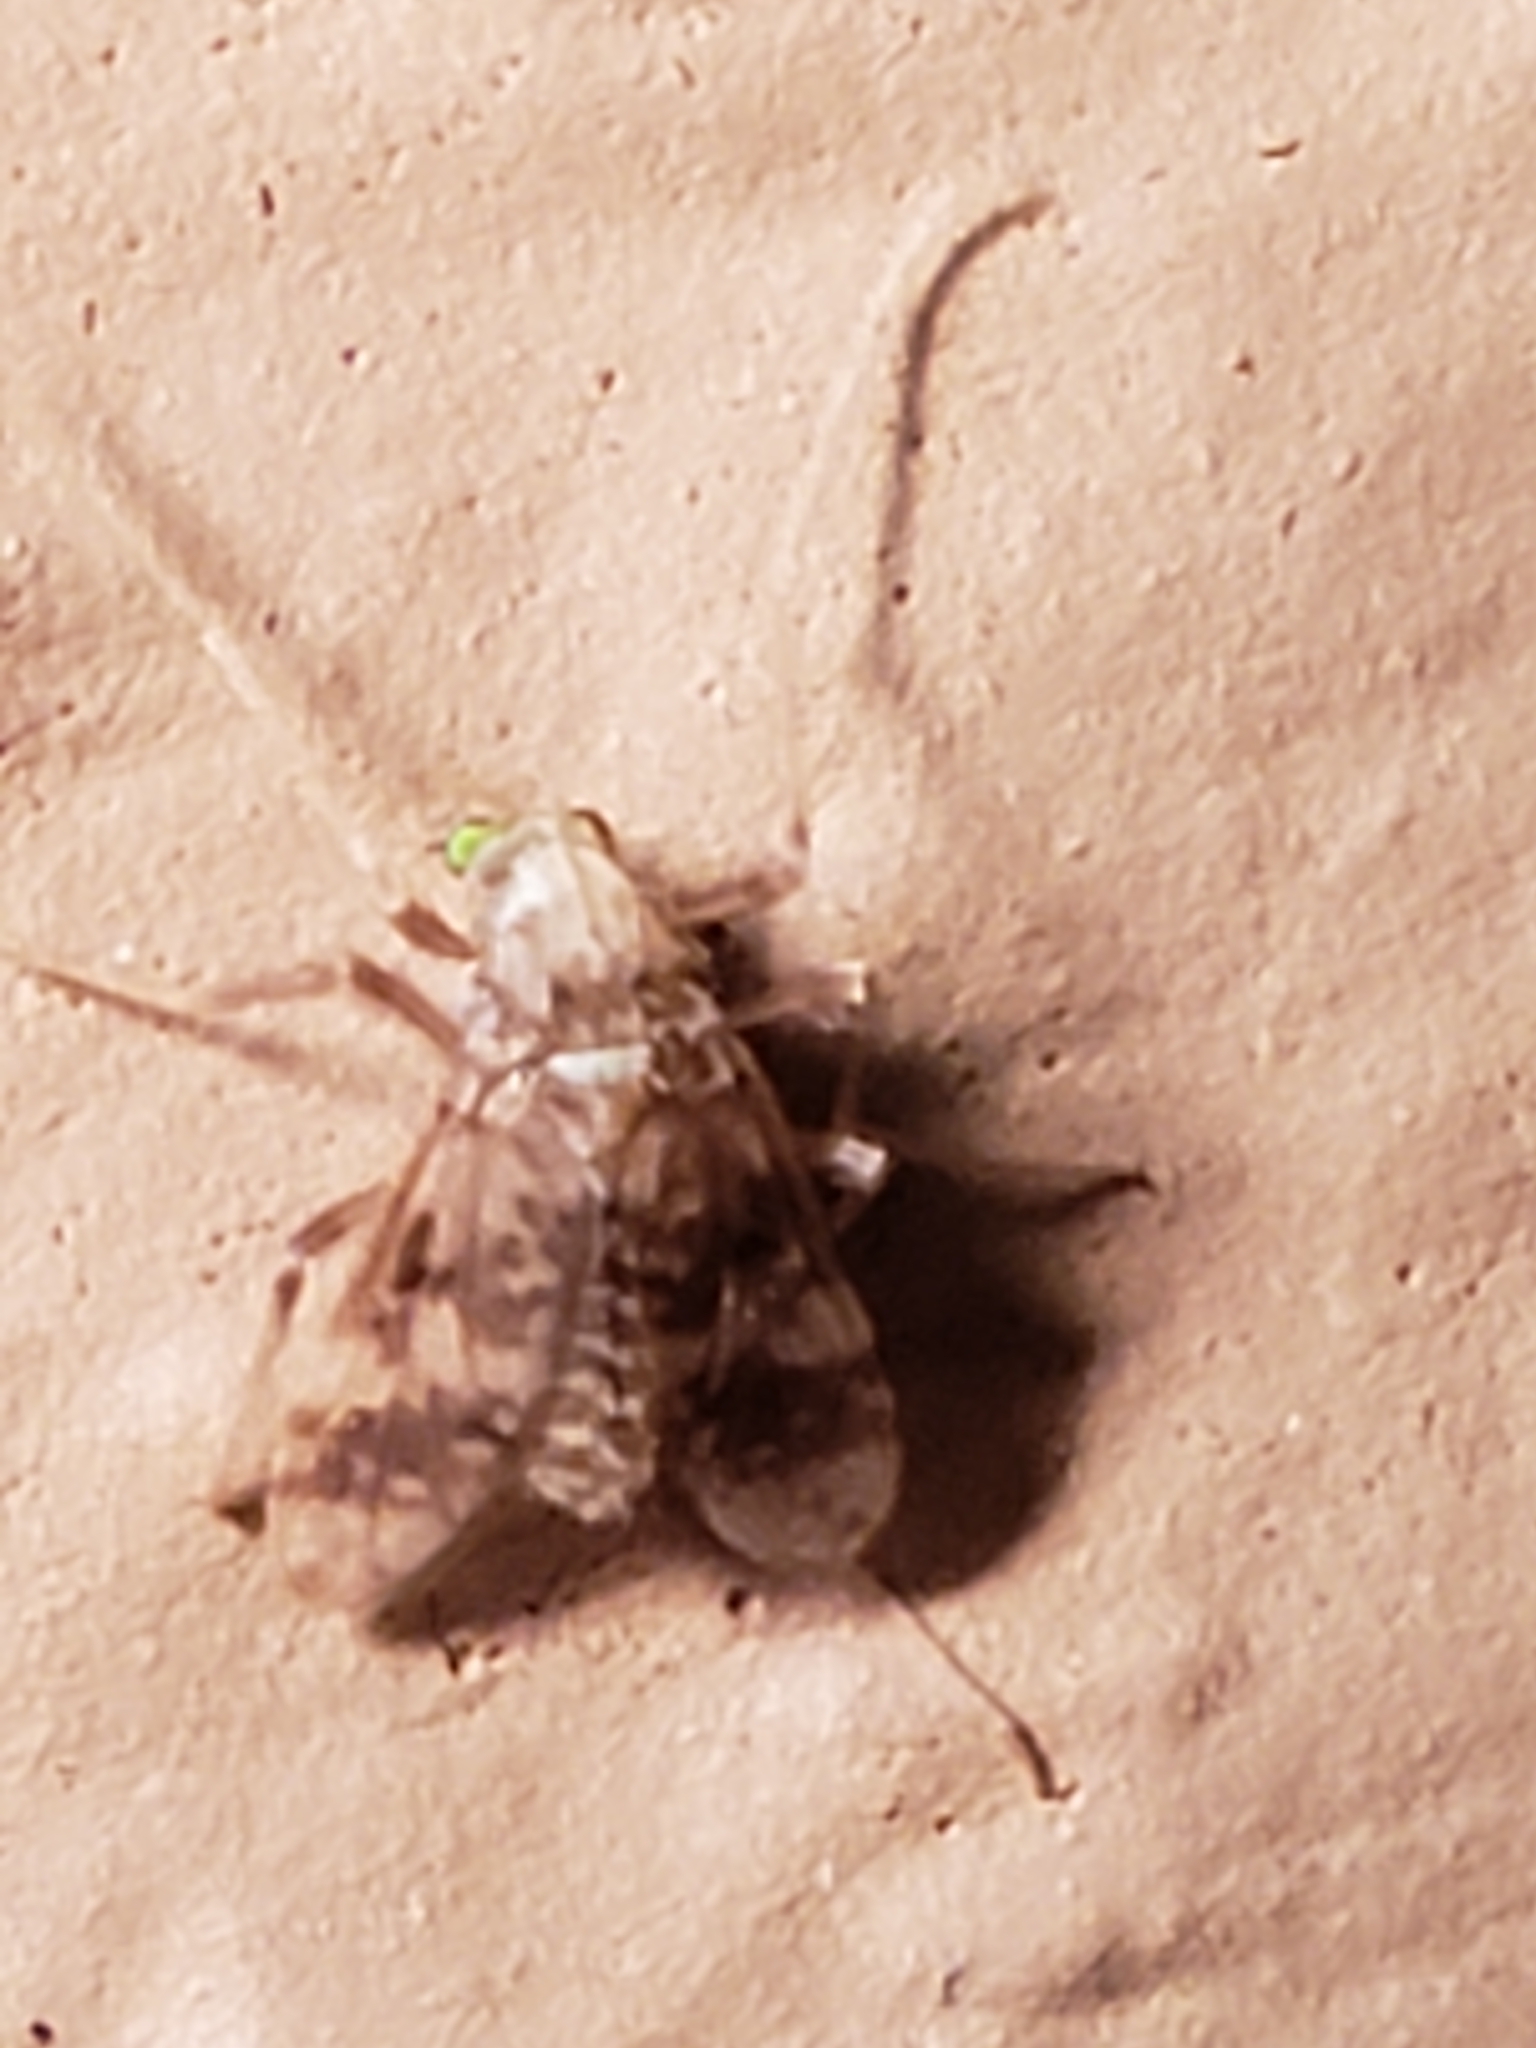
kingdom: Animalia
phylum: Arthropoda
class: Insecta
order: Diptera
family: Chironomidae
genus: Psectrotanypus
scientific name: Psectrotanypus dyari
